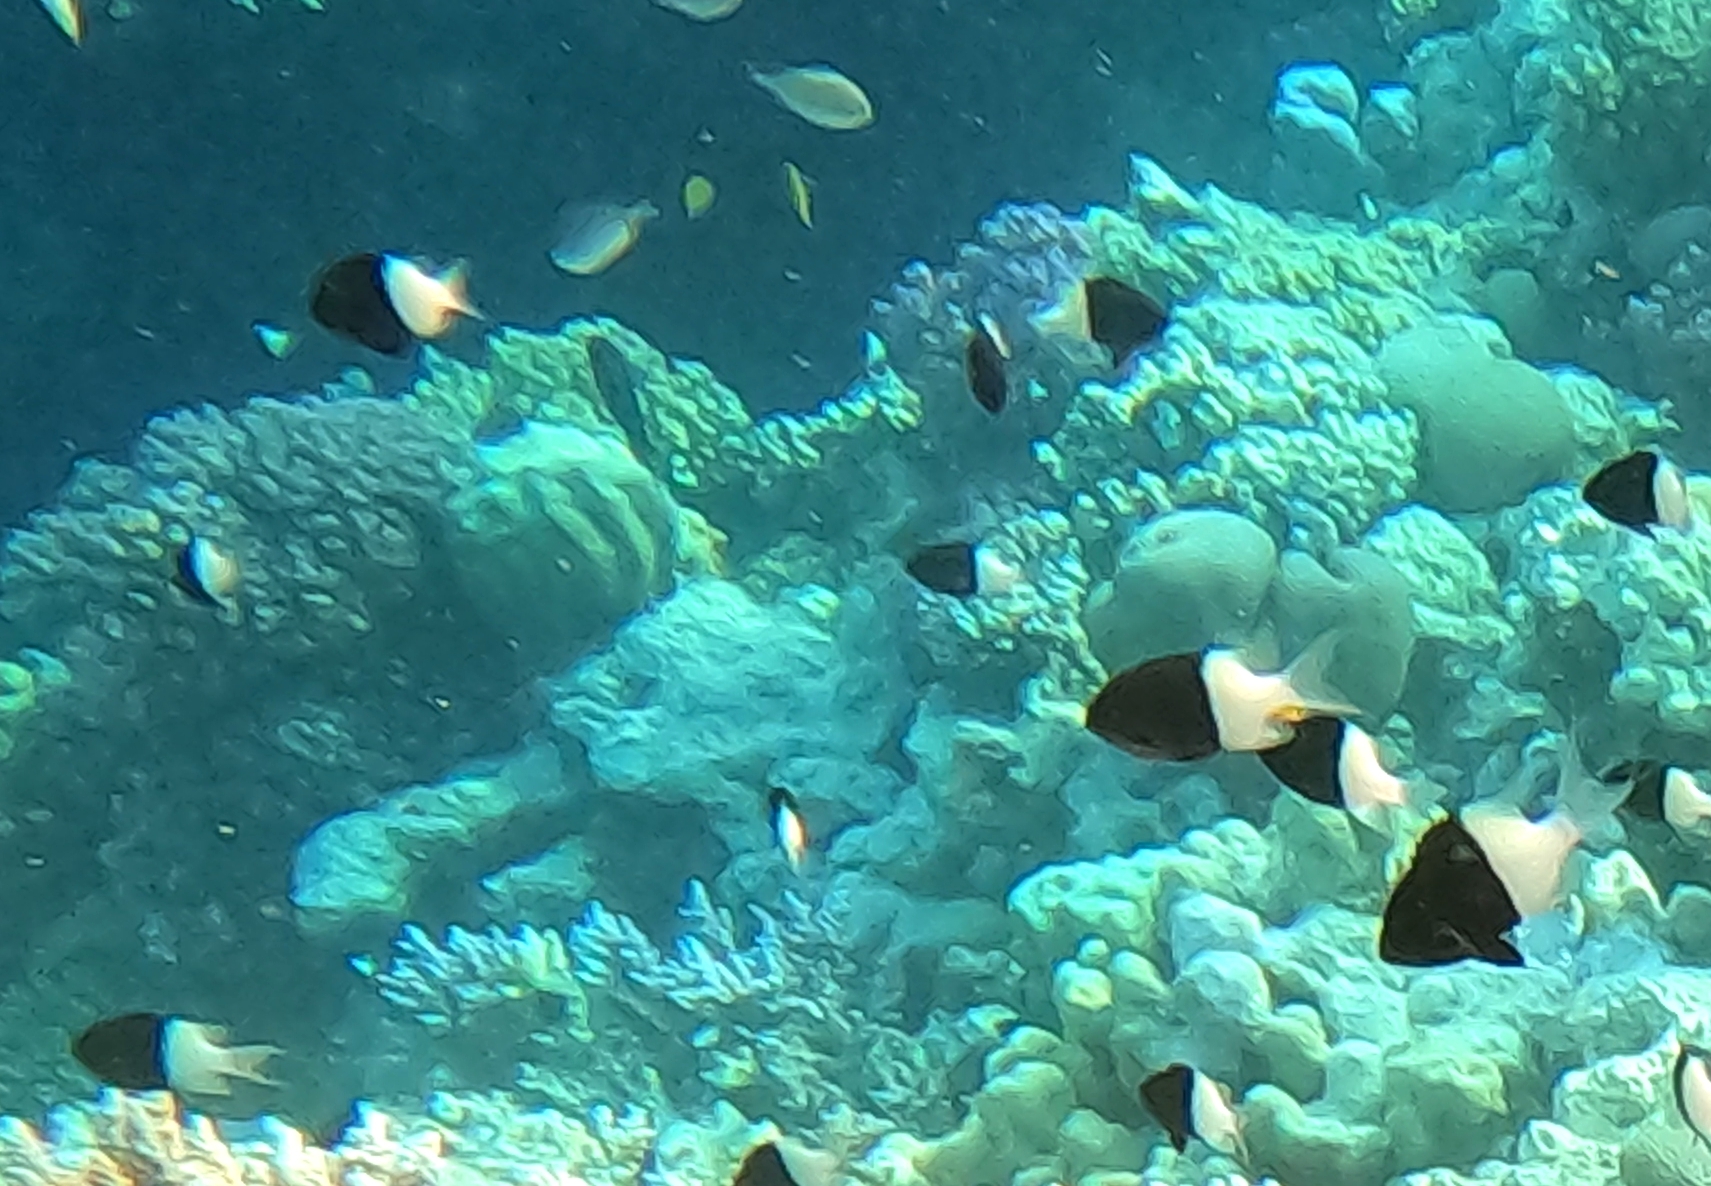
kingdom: Animalia
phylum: Chordata
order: Perciformes
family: Pomacentridae
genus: Chromis
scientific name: Chromis dimidiata
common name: Half-and-half chromis
